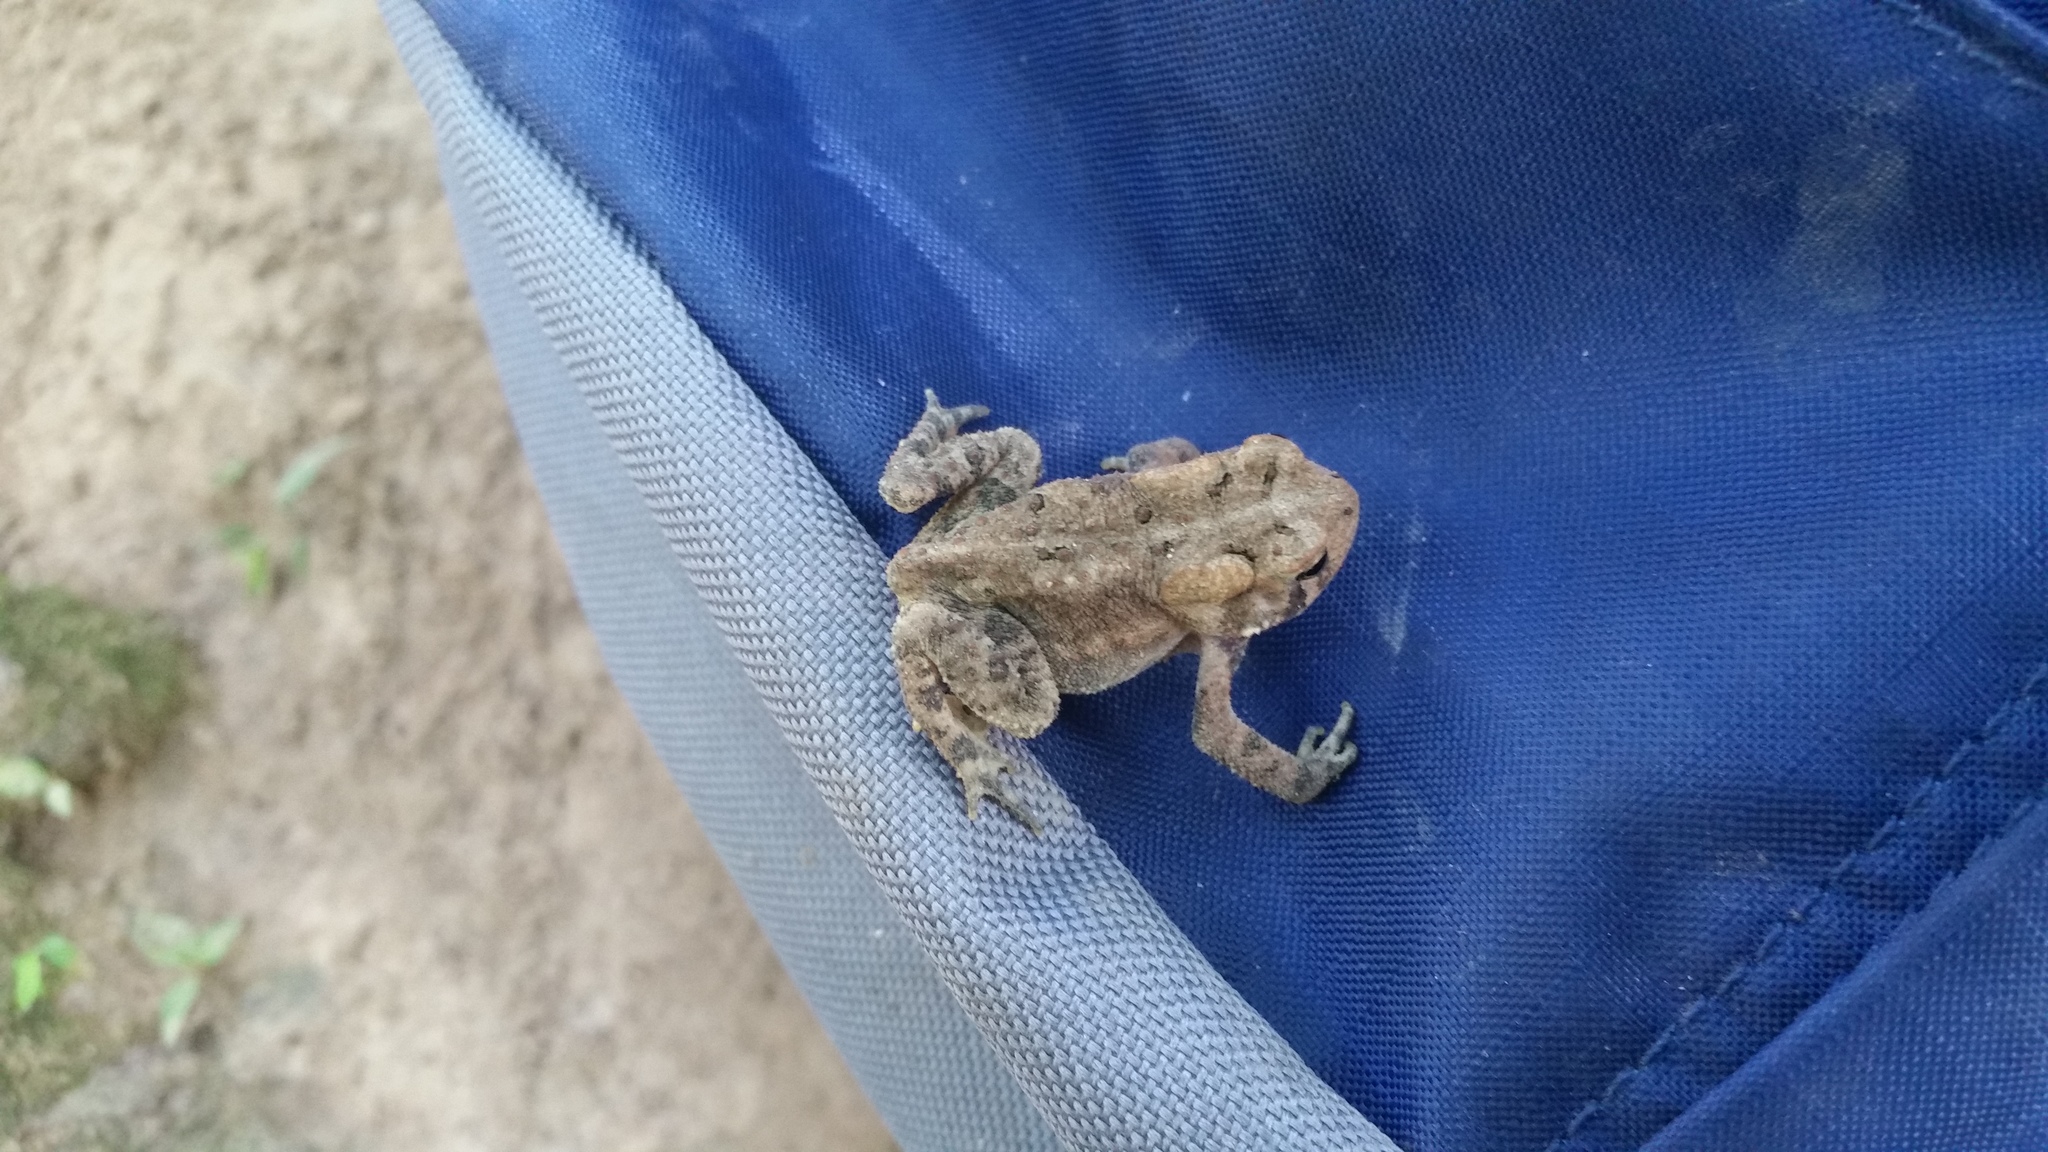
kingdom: Animalia
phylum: Chordata
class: Amphibia
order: Anura
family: Bufonidae
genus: Anaxyrus
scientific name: Anaxyrus americanus
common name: American toad
